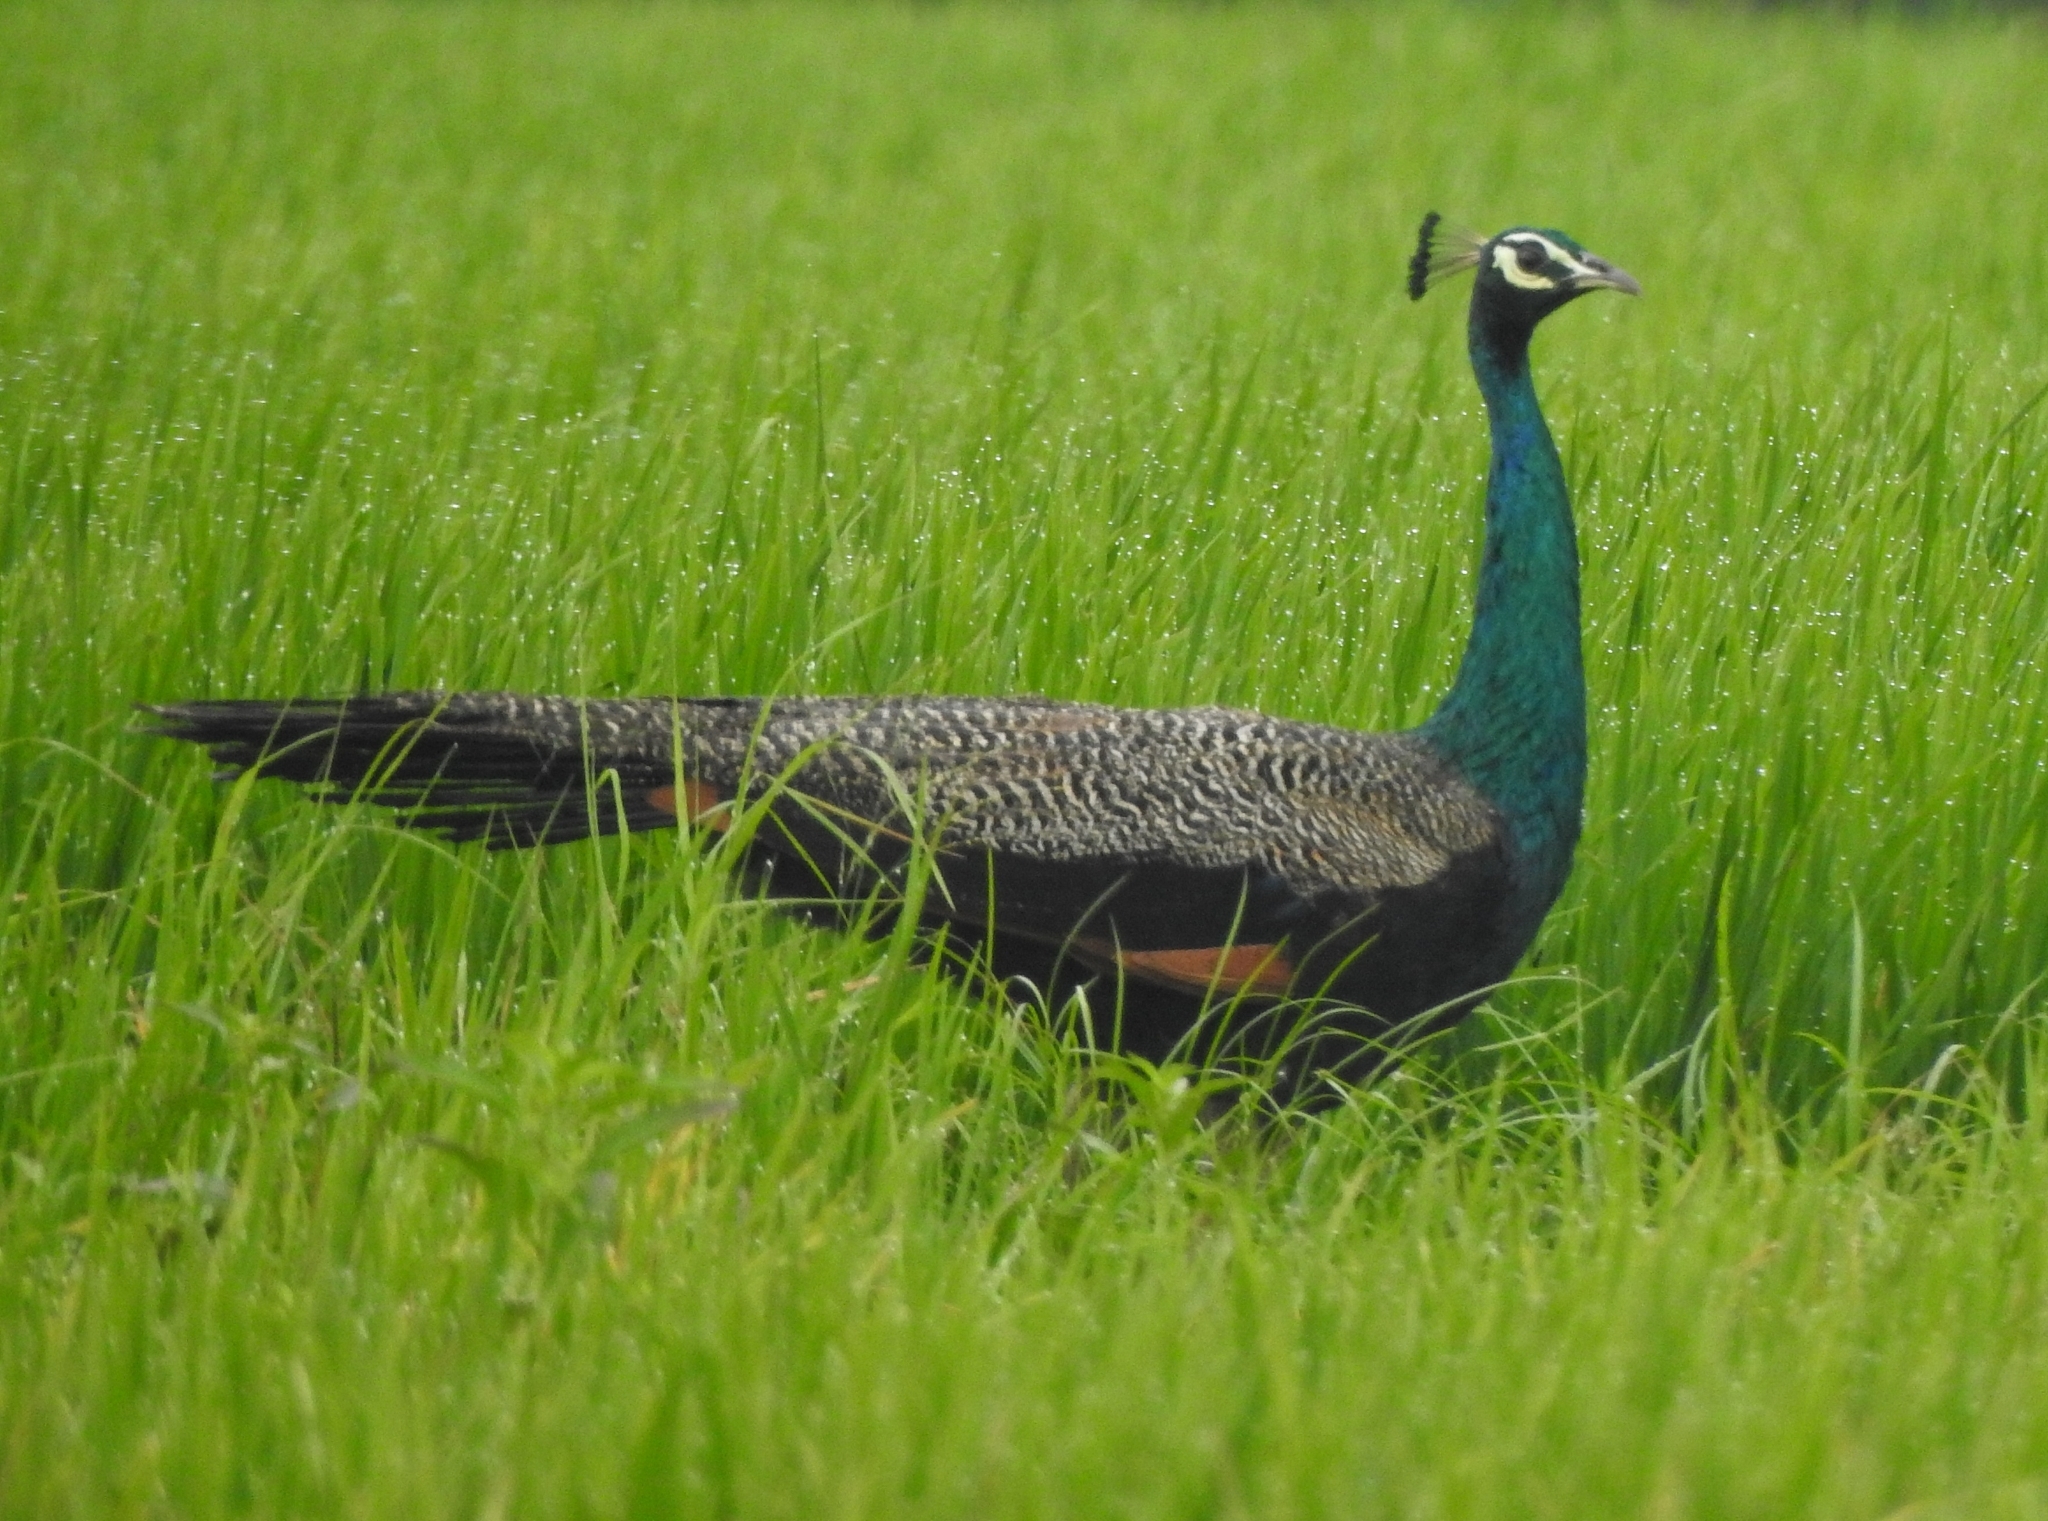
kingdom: Animalia
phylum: Chordata
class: Aves
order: Galliformes
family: Phasianidae
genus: Pavo
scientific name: Pavo cristatus
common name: Indian peafowl
